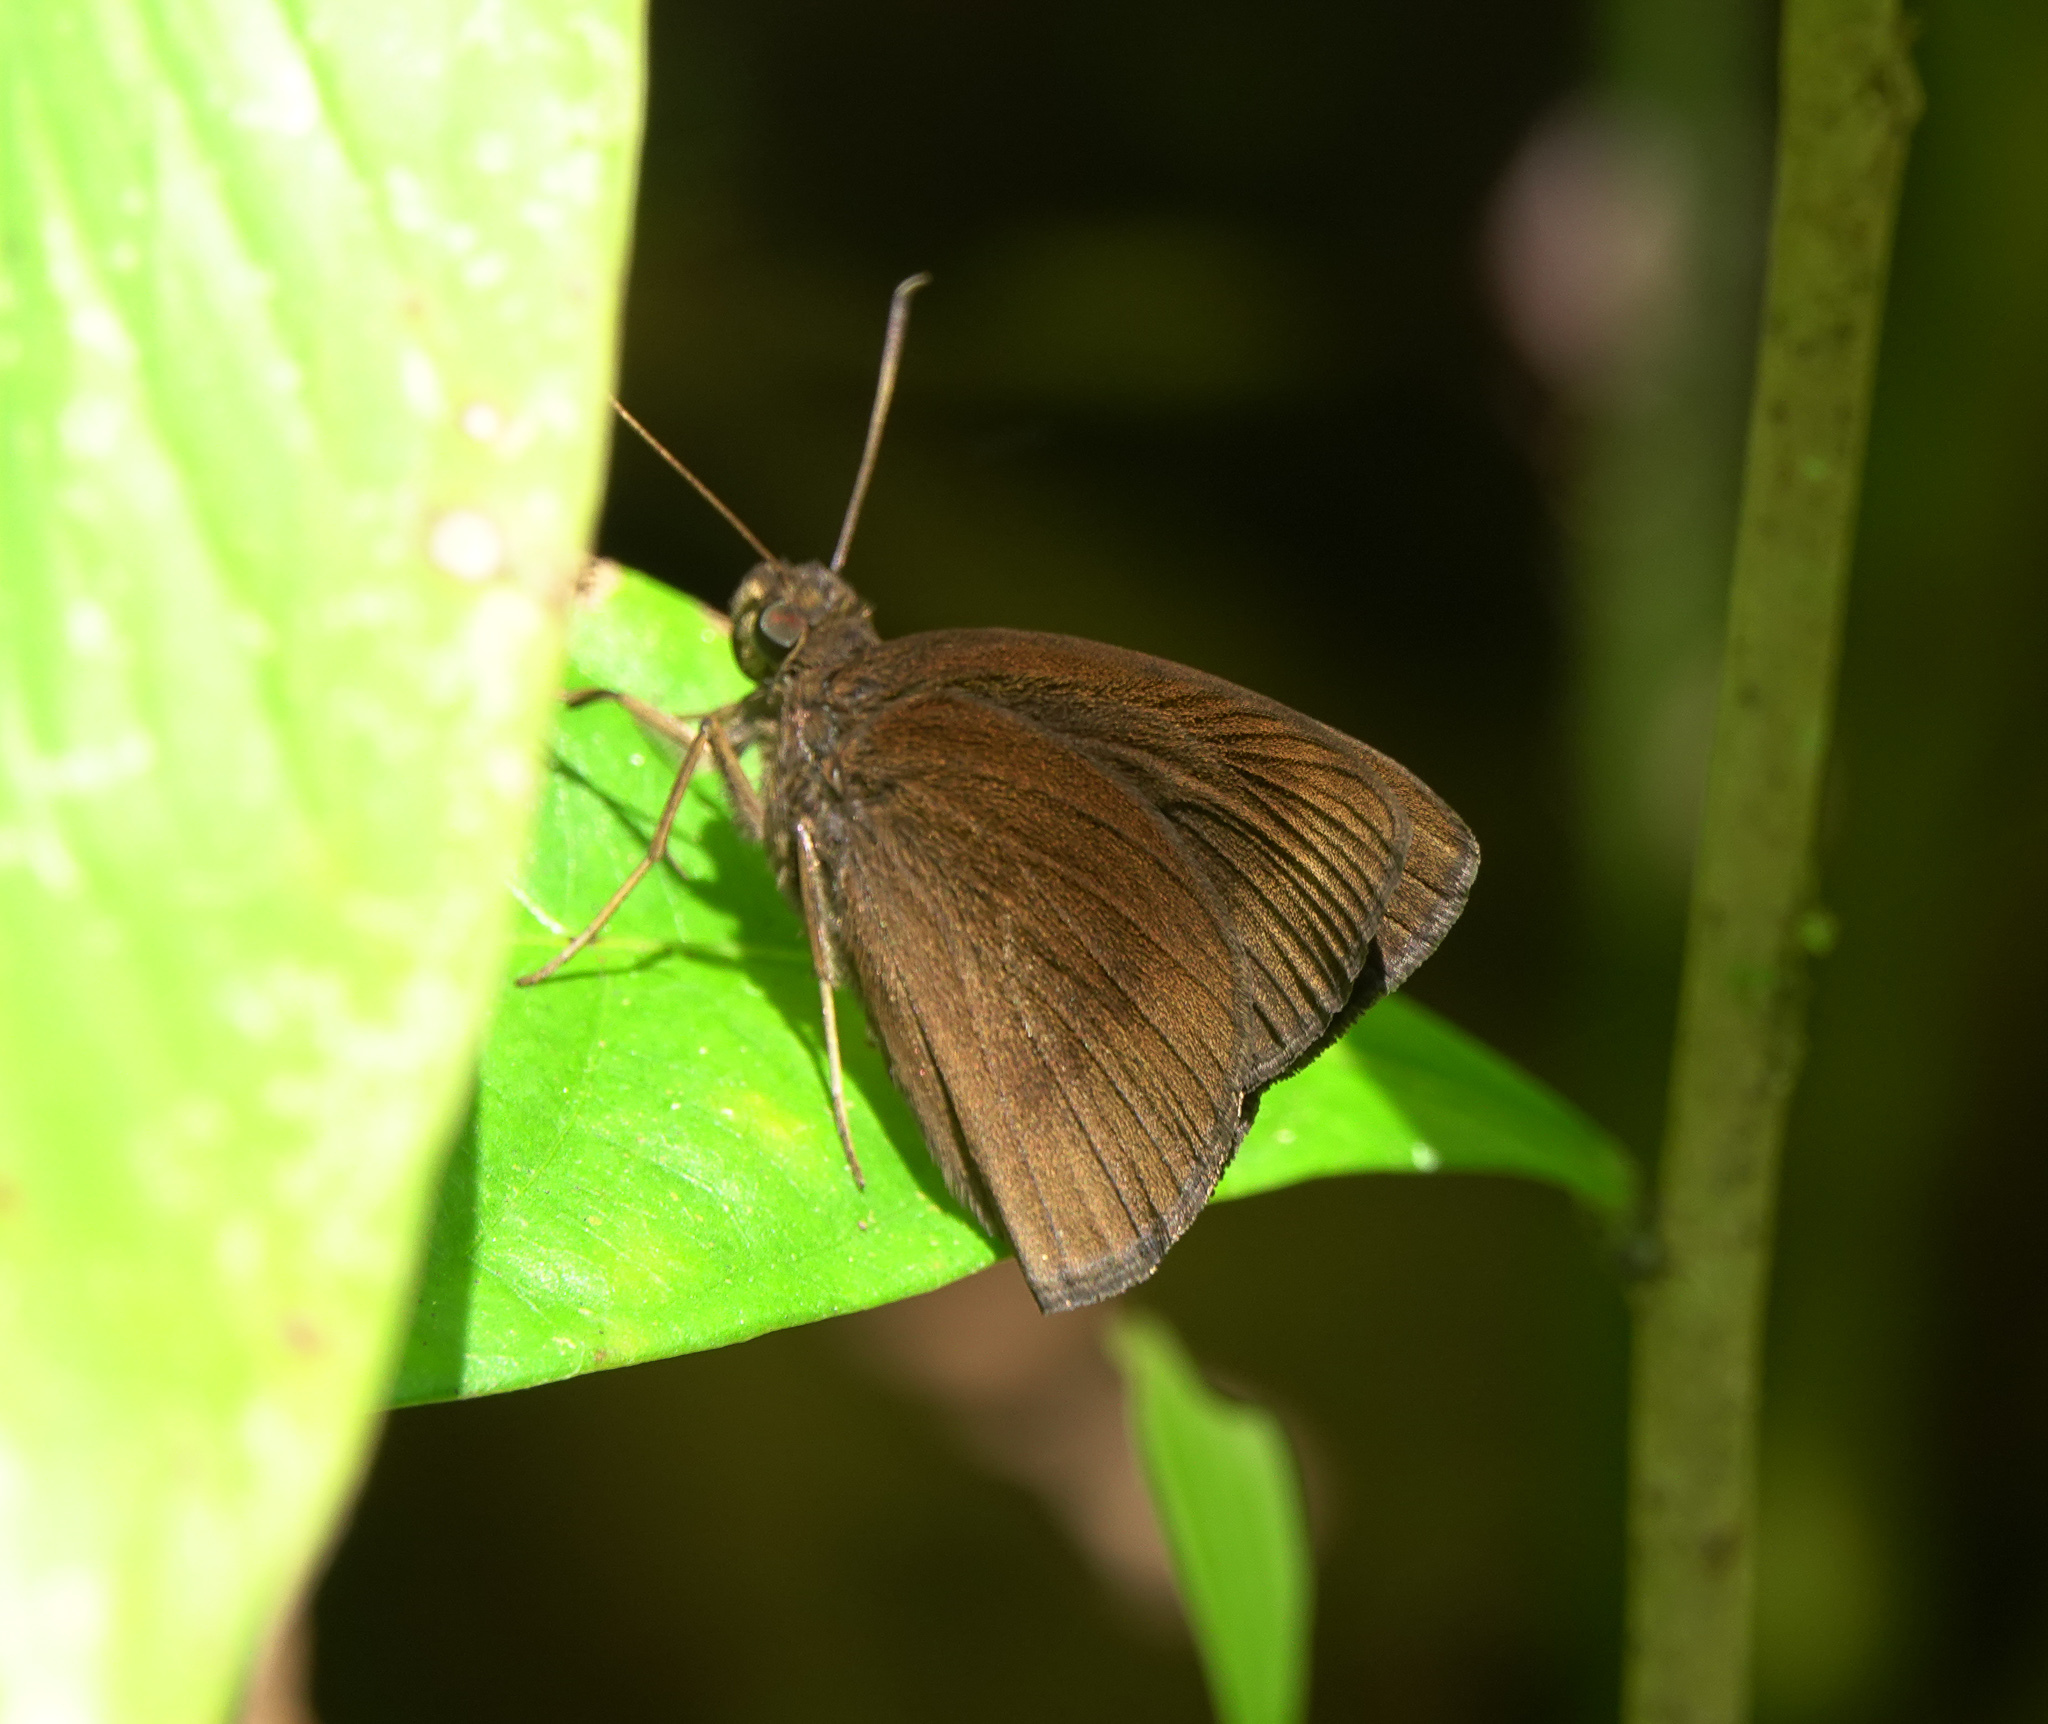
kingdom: Animalia
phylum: Arthropoda
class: Insecta
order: Lepidoptera
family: Hesperiidae
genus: Ancistroides
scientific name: Ancistroides nigrita
